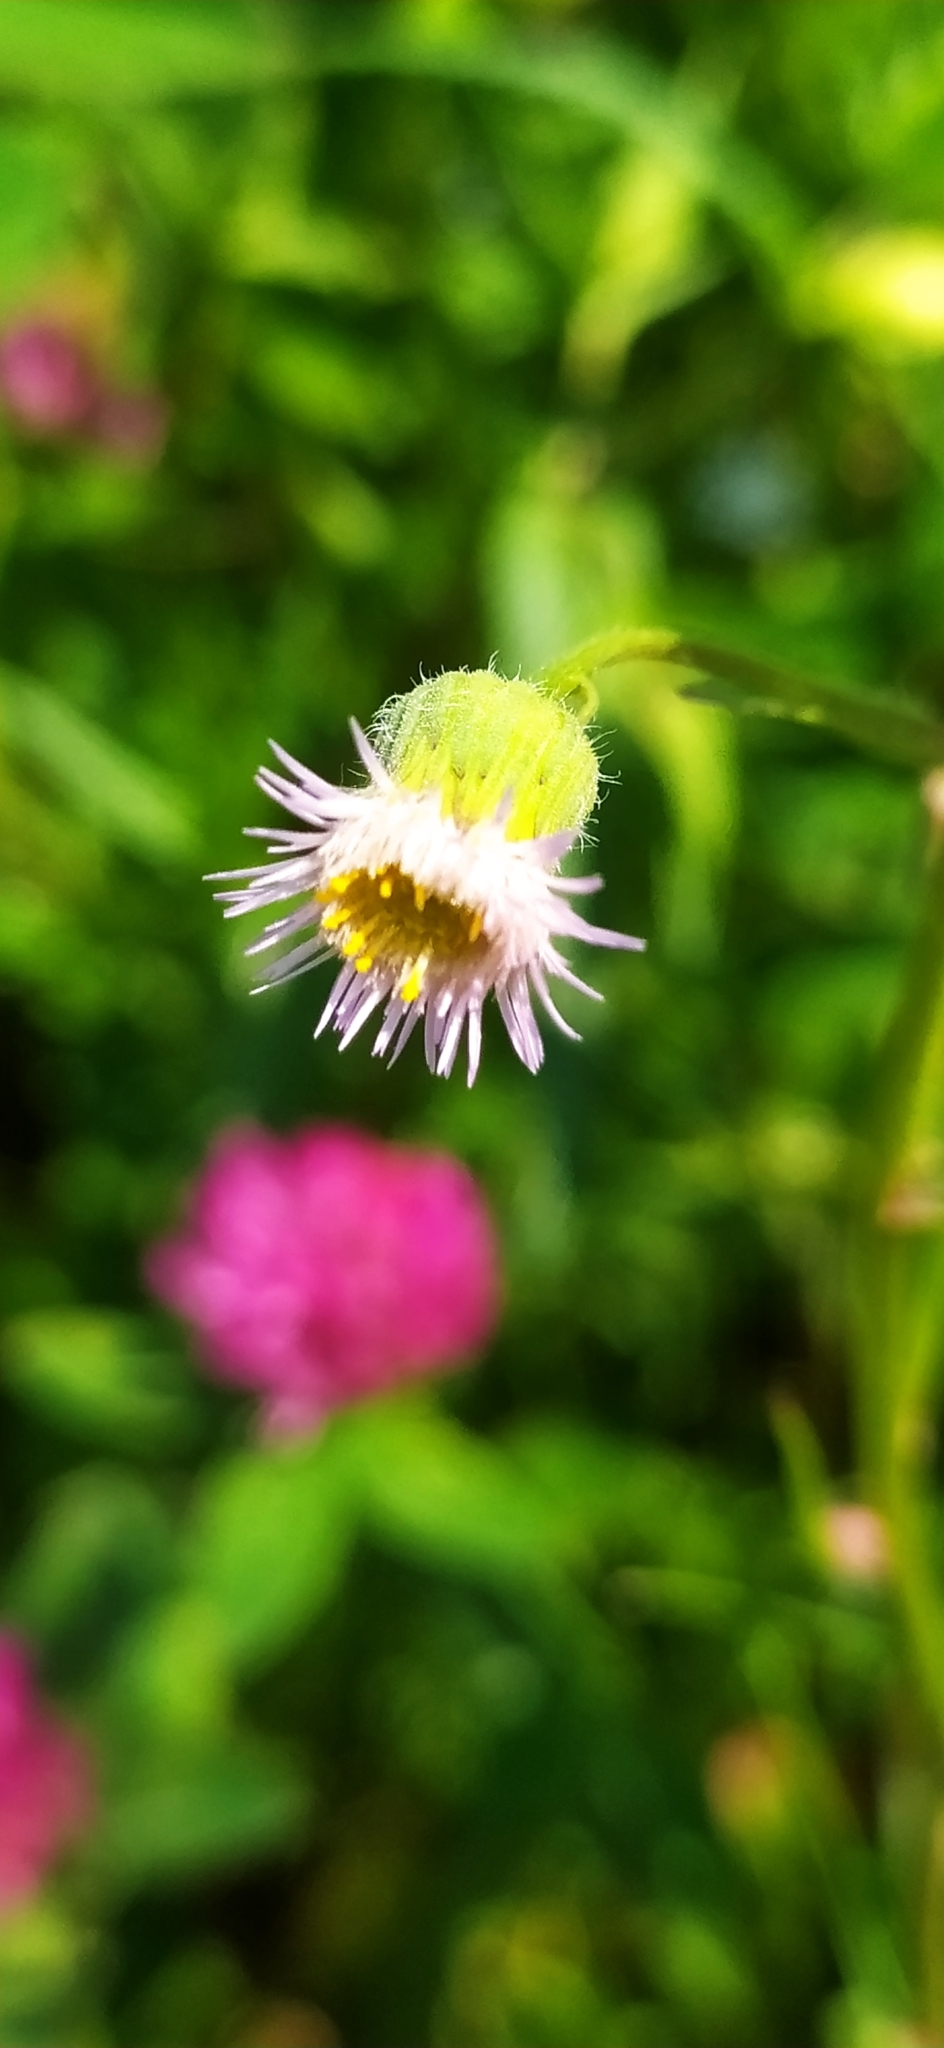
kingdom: Plantae
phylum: Tracheophyta
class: Magnoliopsida
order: Asterales
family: Asteraceae
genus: Erigeron
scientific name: Erigeron acris
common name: Blue fleabane
